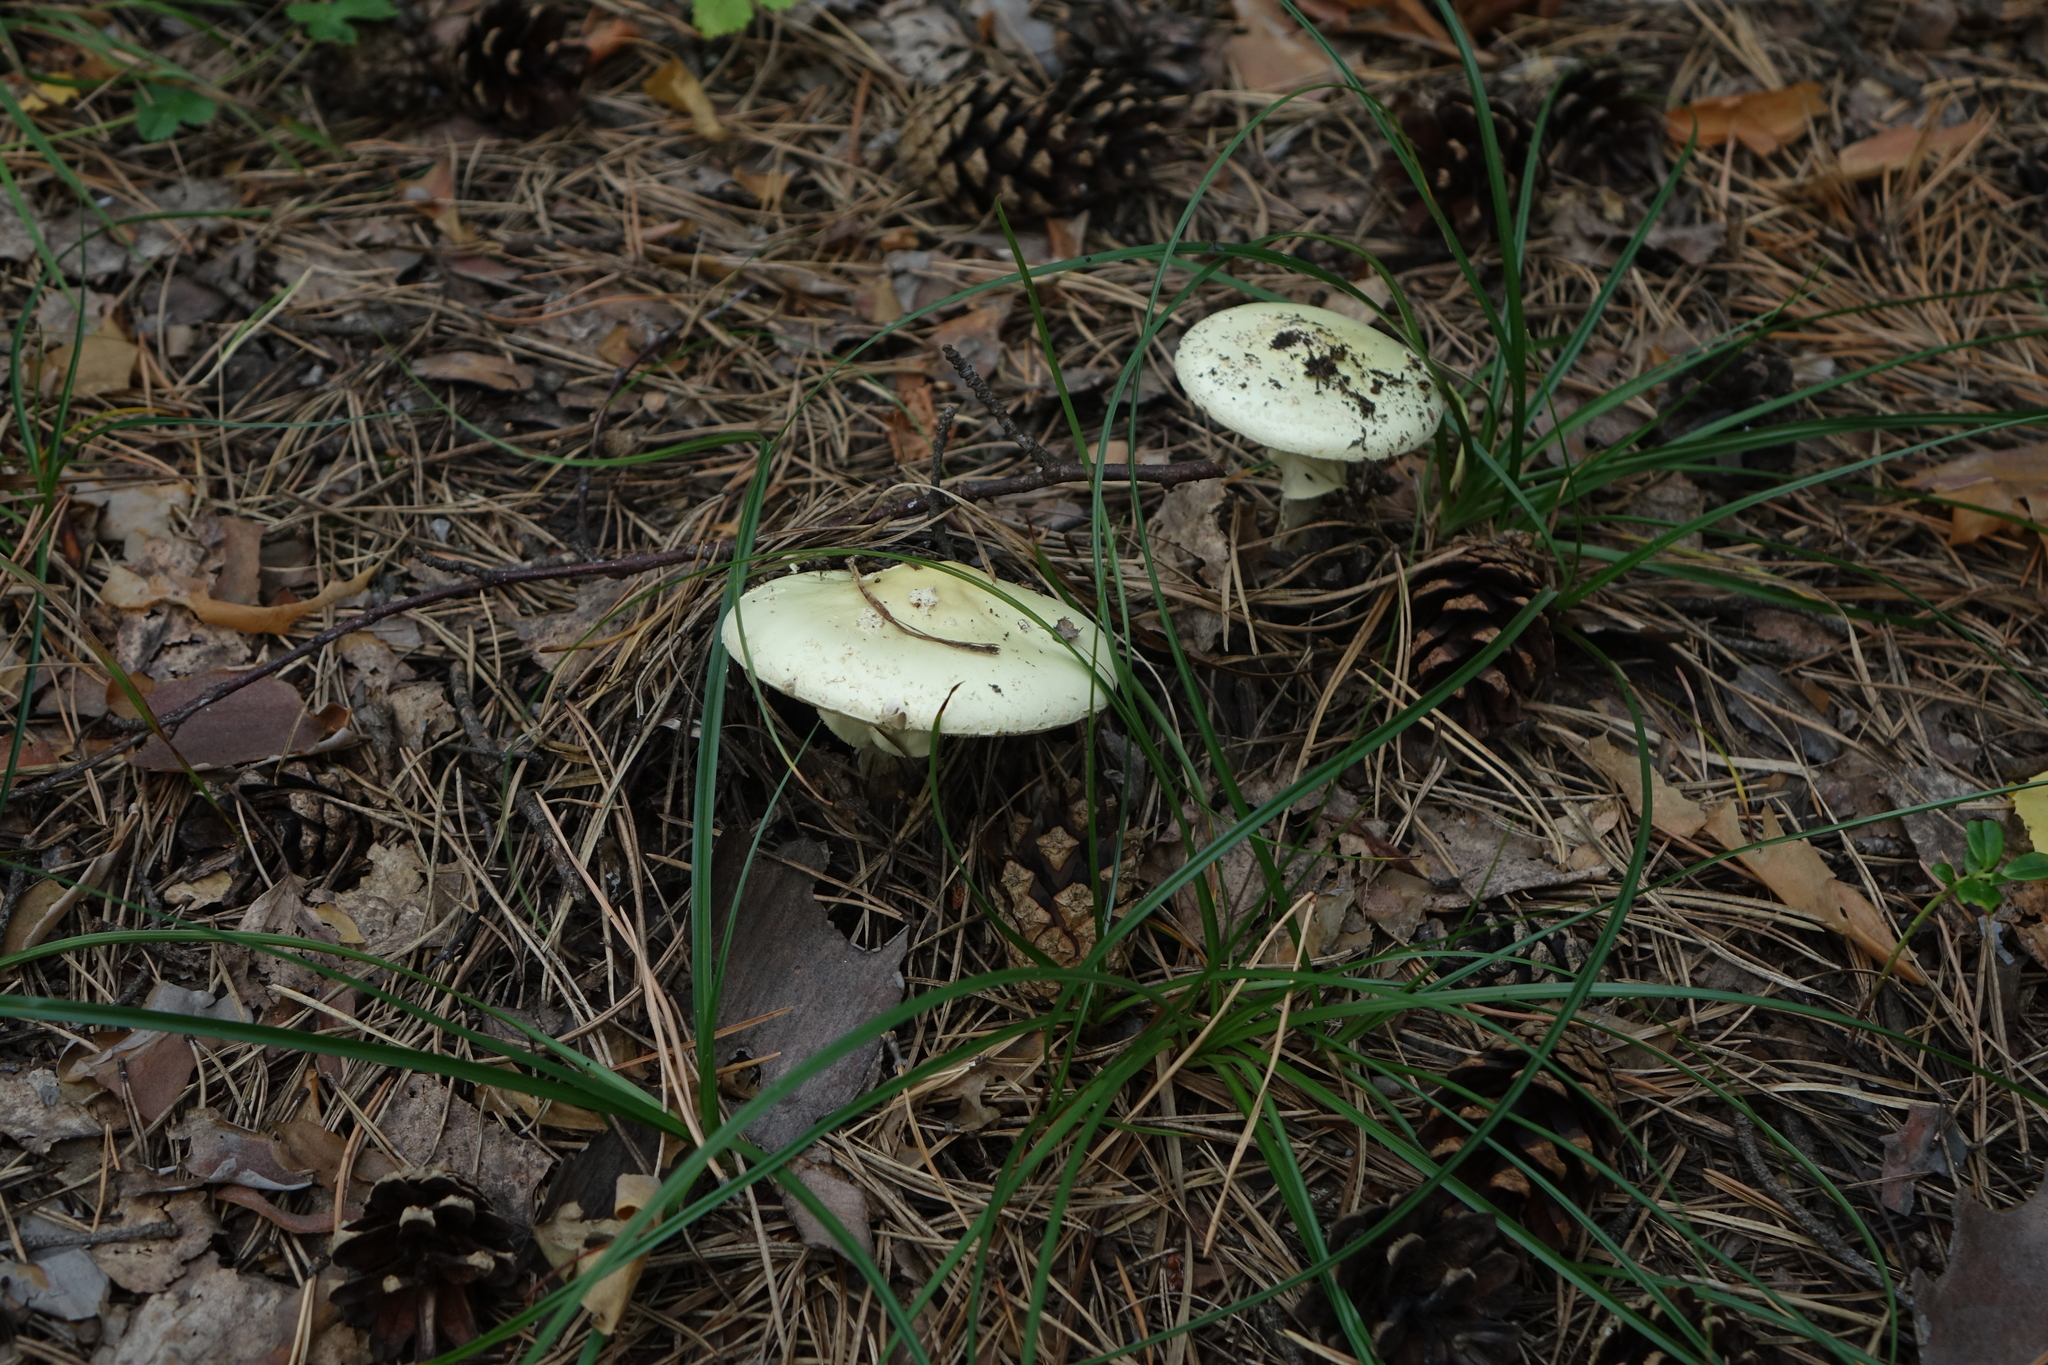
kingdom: Fungi
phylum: Basidiomycota
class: Agaricomycetes
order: Agaricales
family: Amanitaceae
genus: Amanita
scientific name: Amanita citrina
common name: False death-cap
